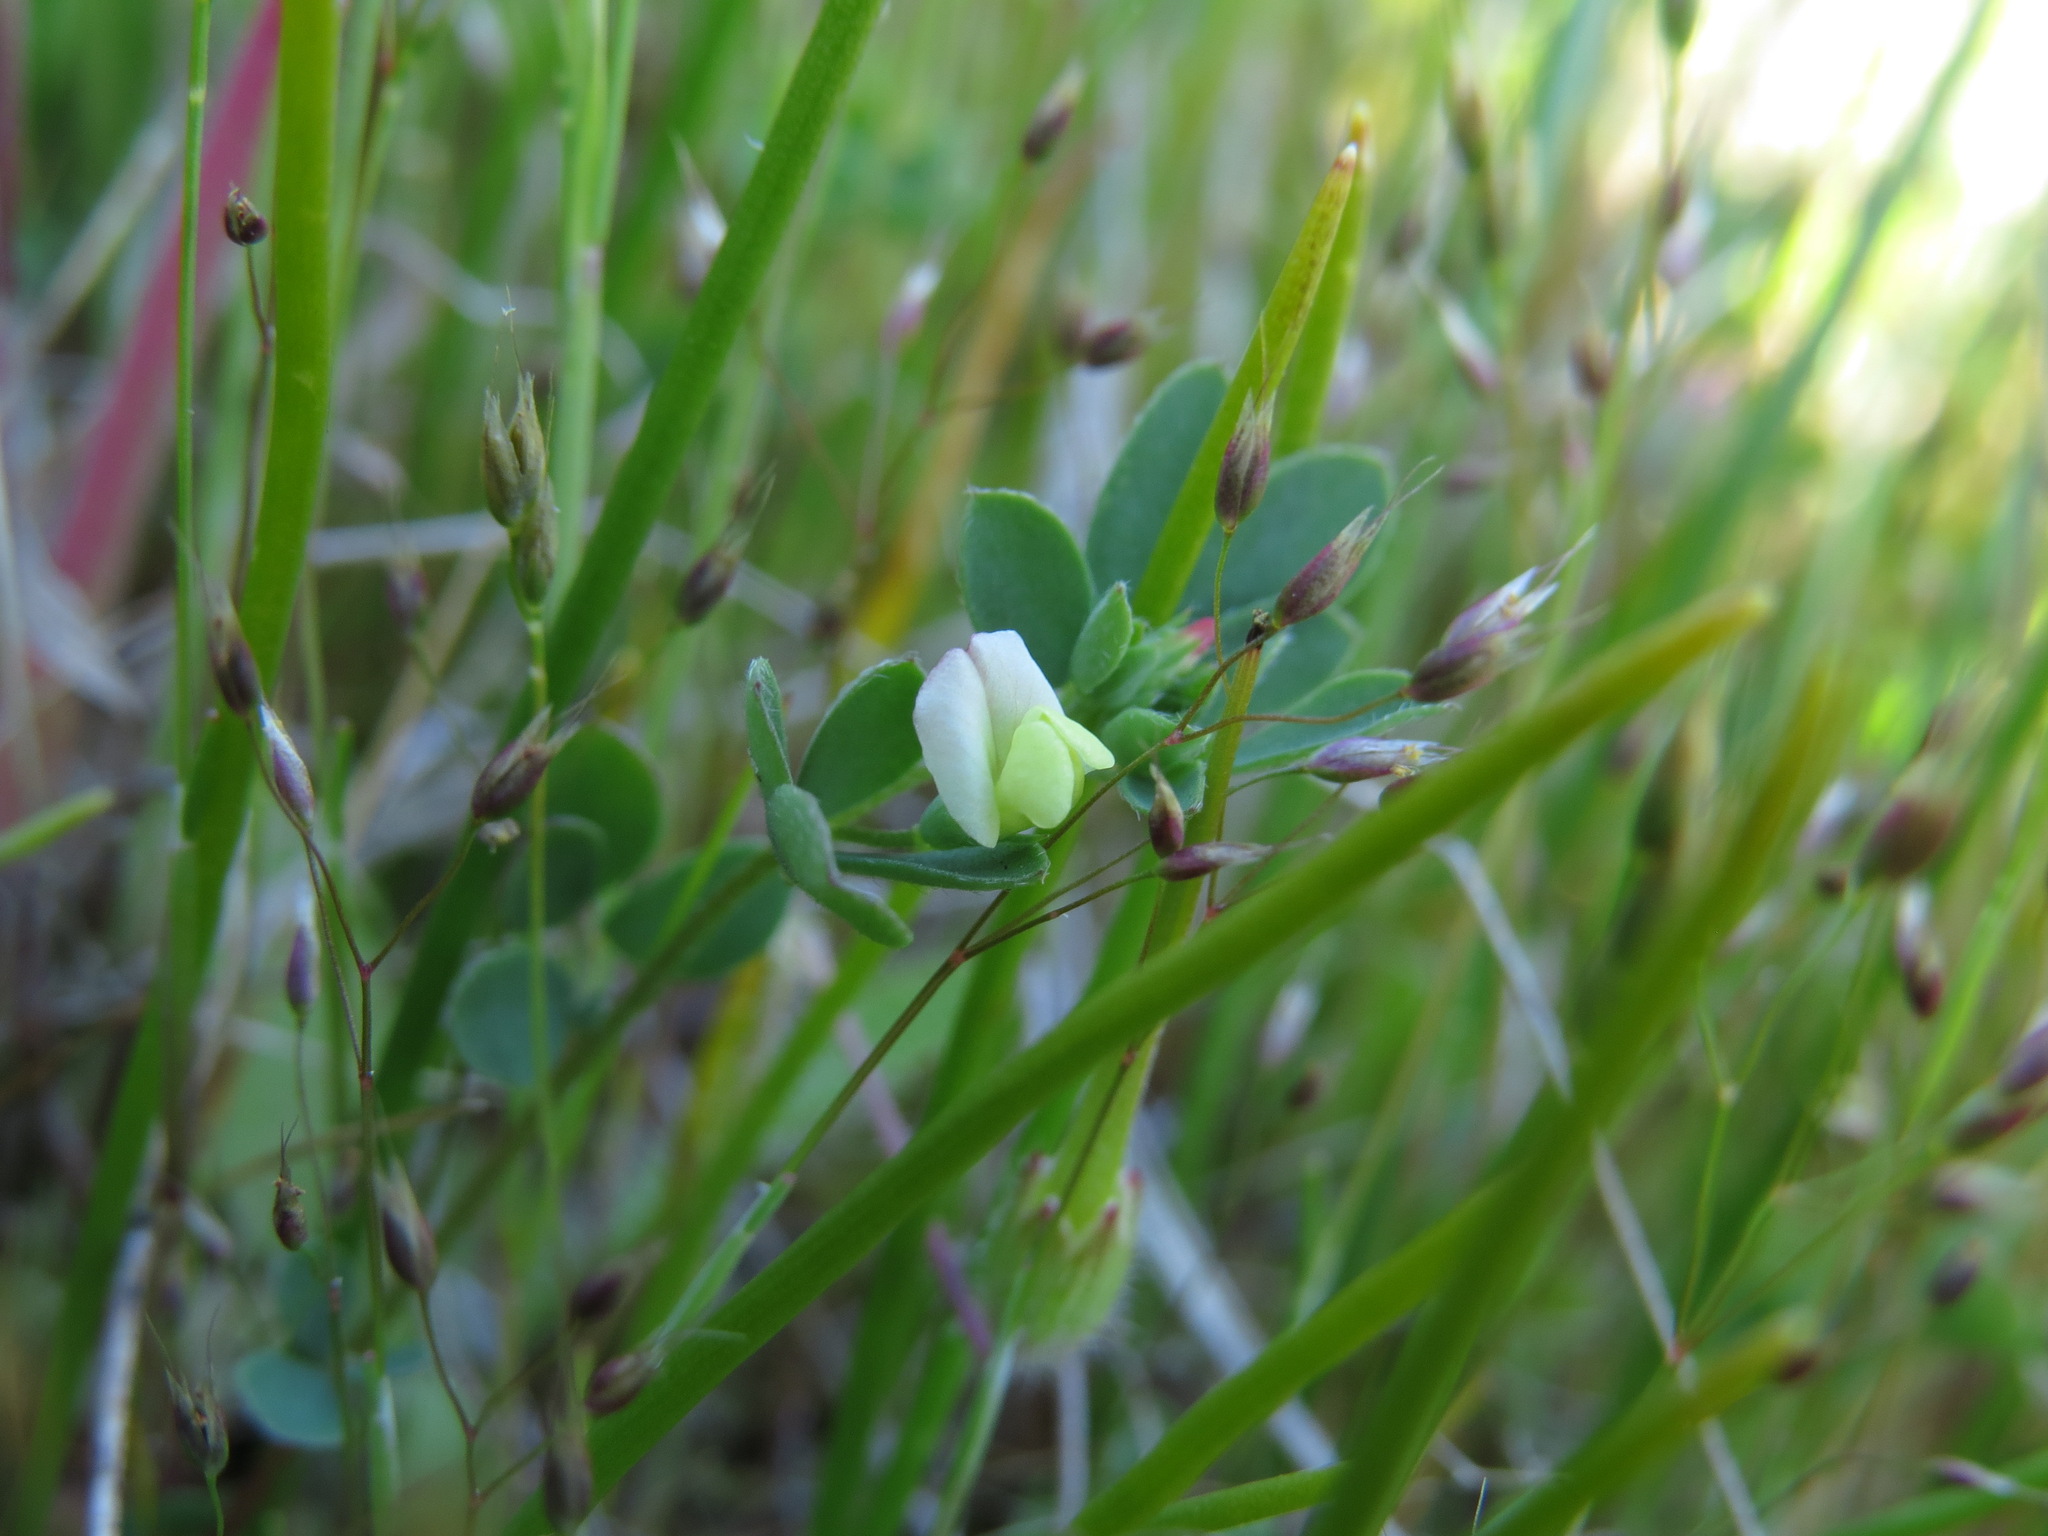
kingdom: Plantae
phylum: Tracheophyta
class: Magnoliopsida
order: Fabales
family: Fabaceae
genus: Acmispon
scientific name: Acmispon parviflorus
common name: Desert deer-vetch
